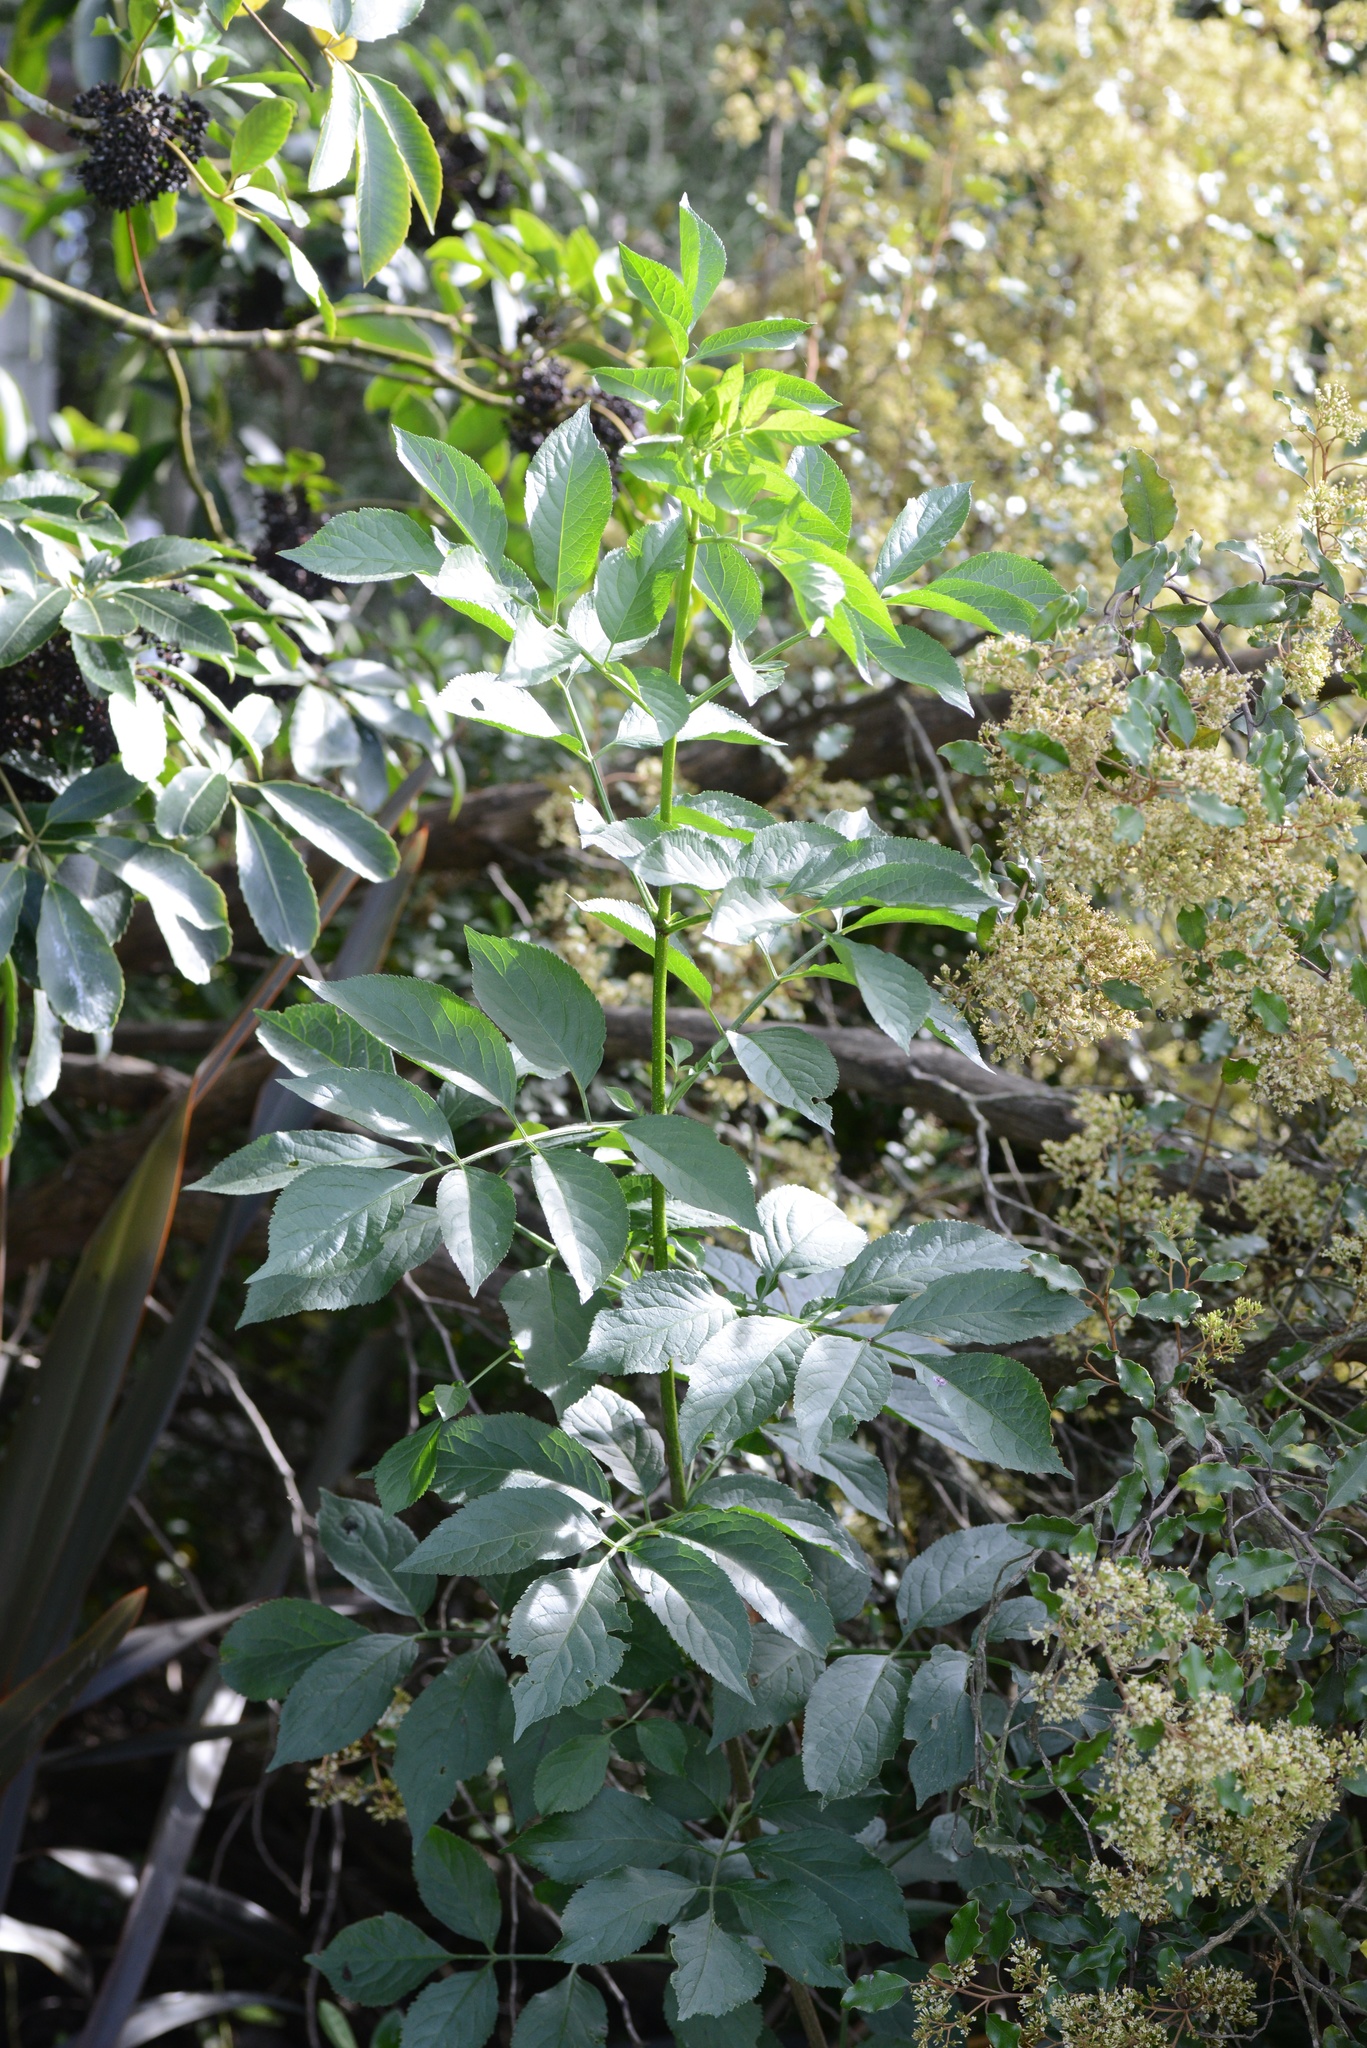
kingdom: Plantae
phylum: Tracheophyta
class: Magnoliopsida
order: Dipsacales
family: Viburnaceae
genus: Sambucus
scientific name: Sambucus nigra
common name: Elder
